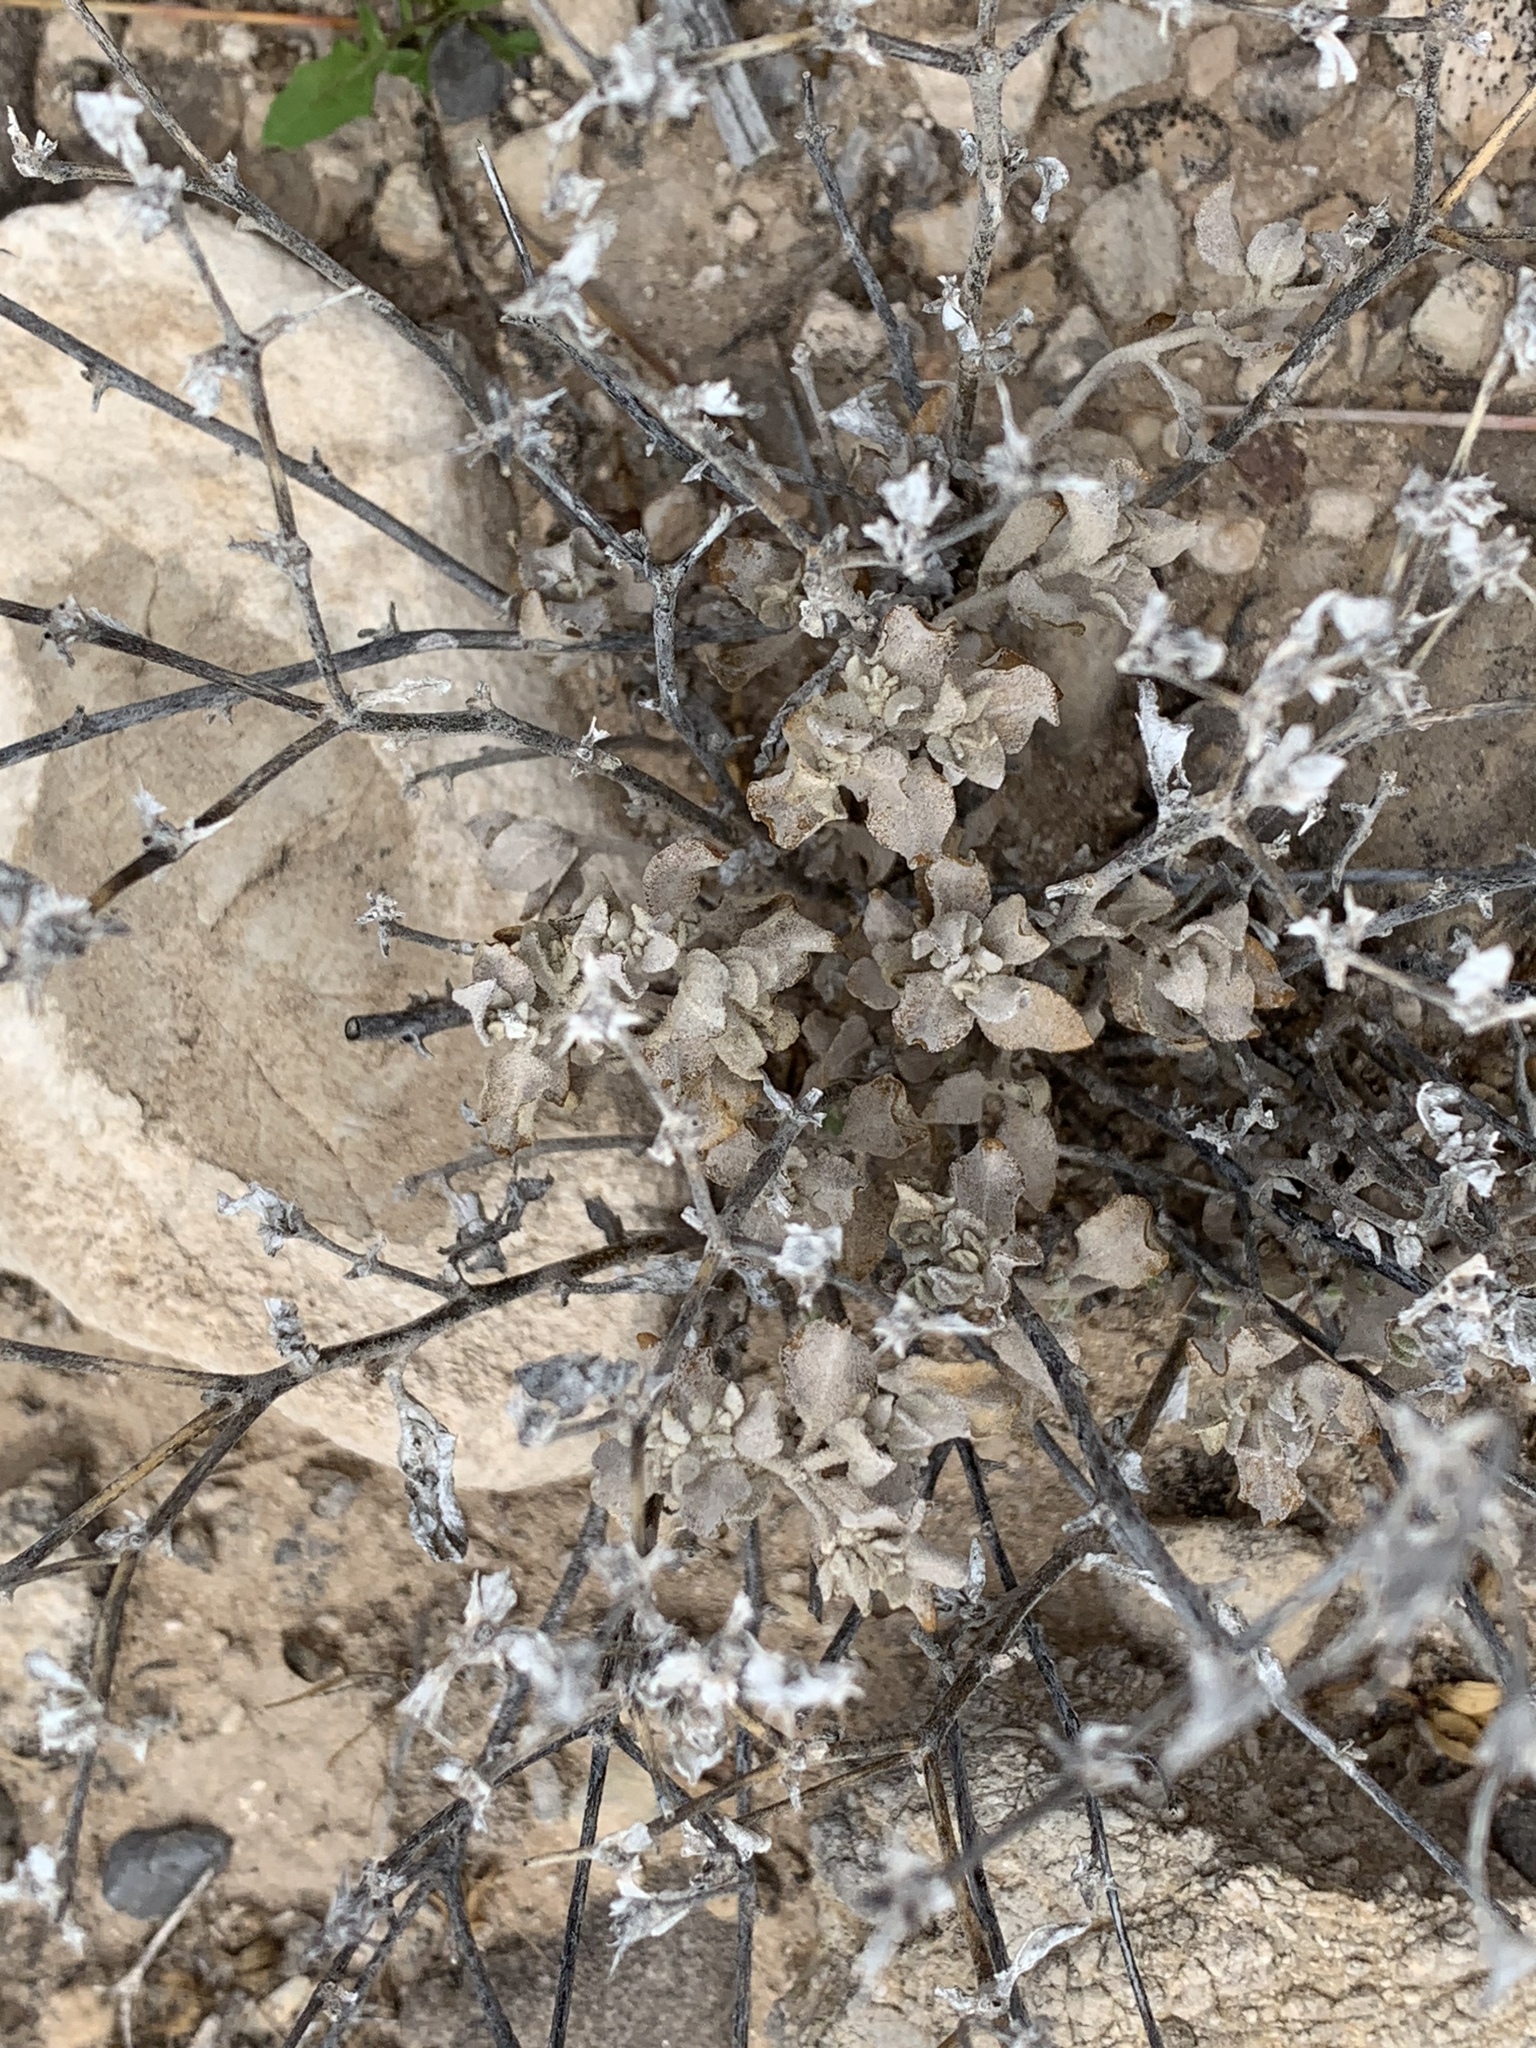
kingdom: Plantae
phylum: Tracheophyta
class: Magnoliopsida
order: Asterales
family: Asteraceae
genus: Parthenium
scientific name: Parthenium incanum
